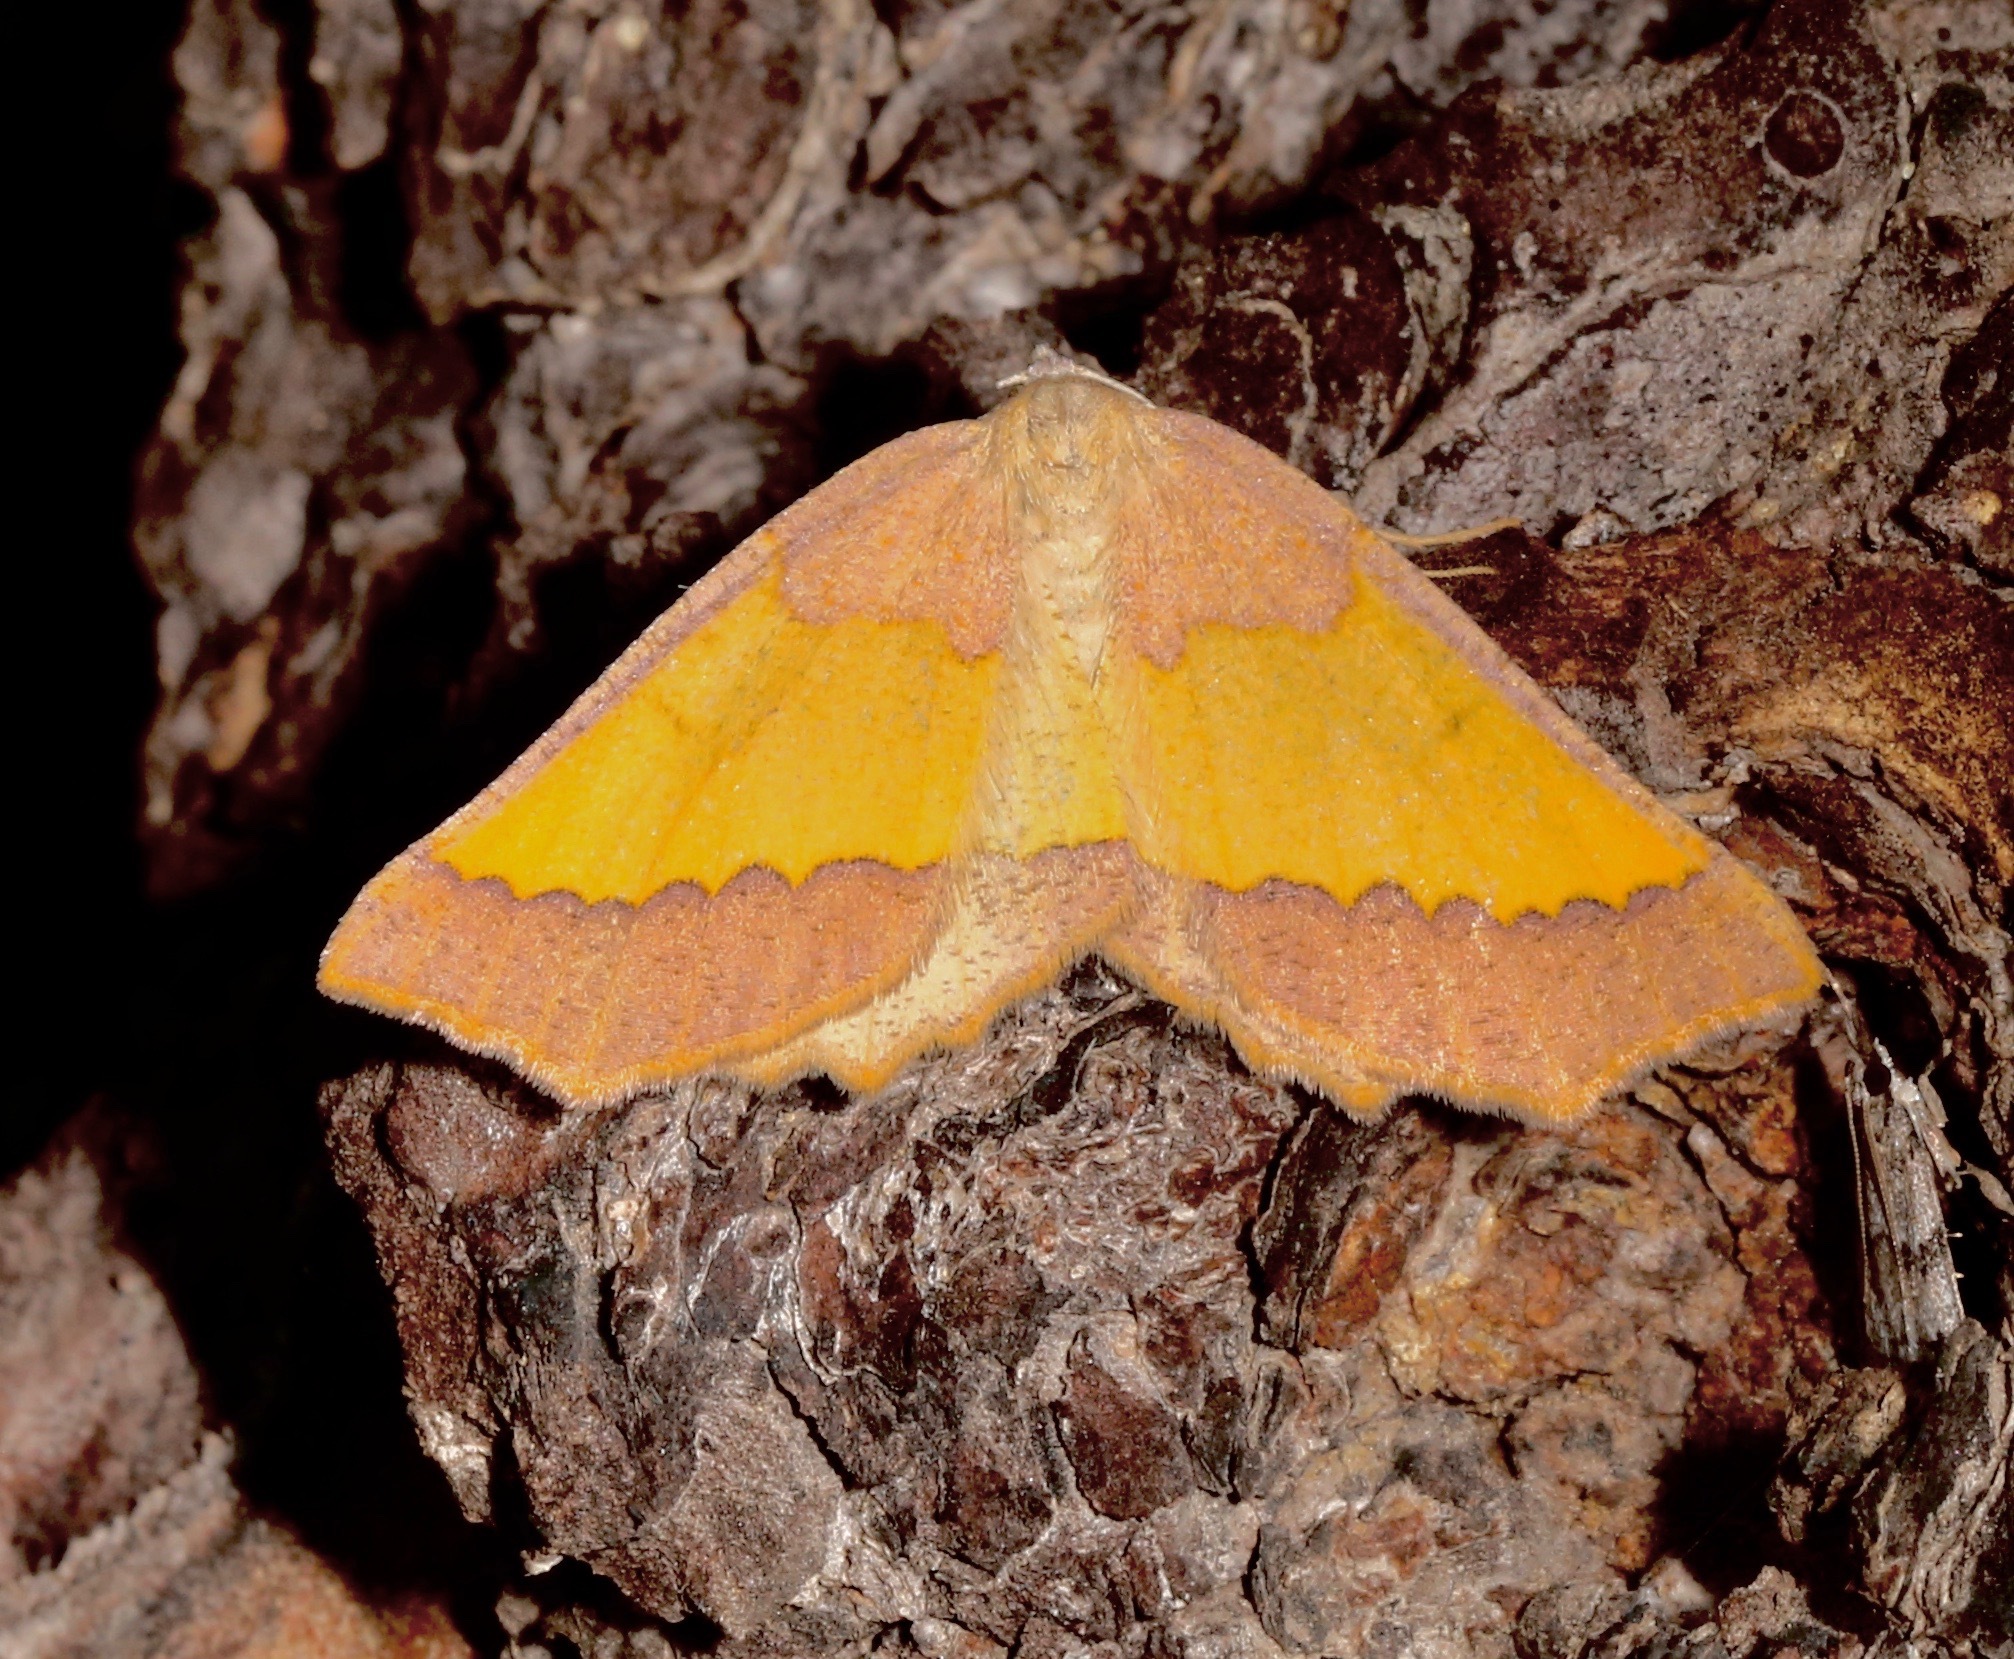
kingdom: Animalia
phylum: Arthropoda
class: Insecta
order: Lepidoptera
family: Geometridae
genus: Lychnosea
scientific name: Lychnosea helveolaria
